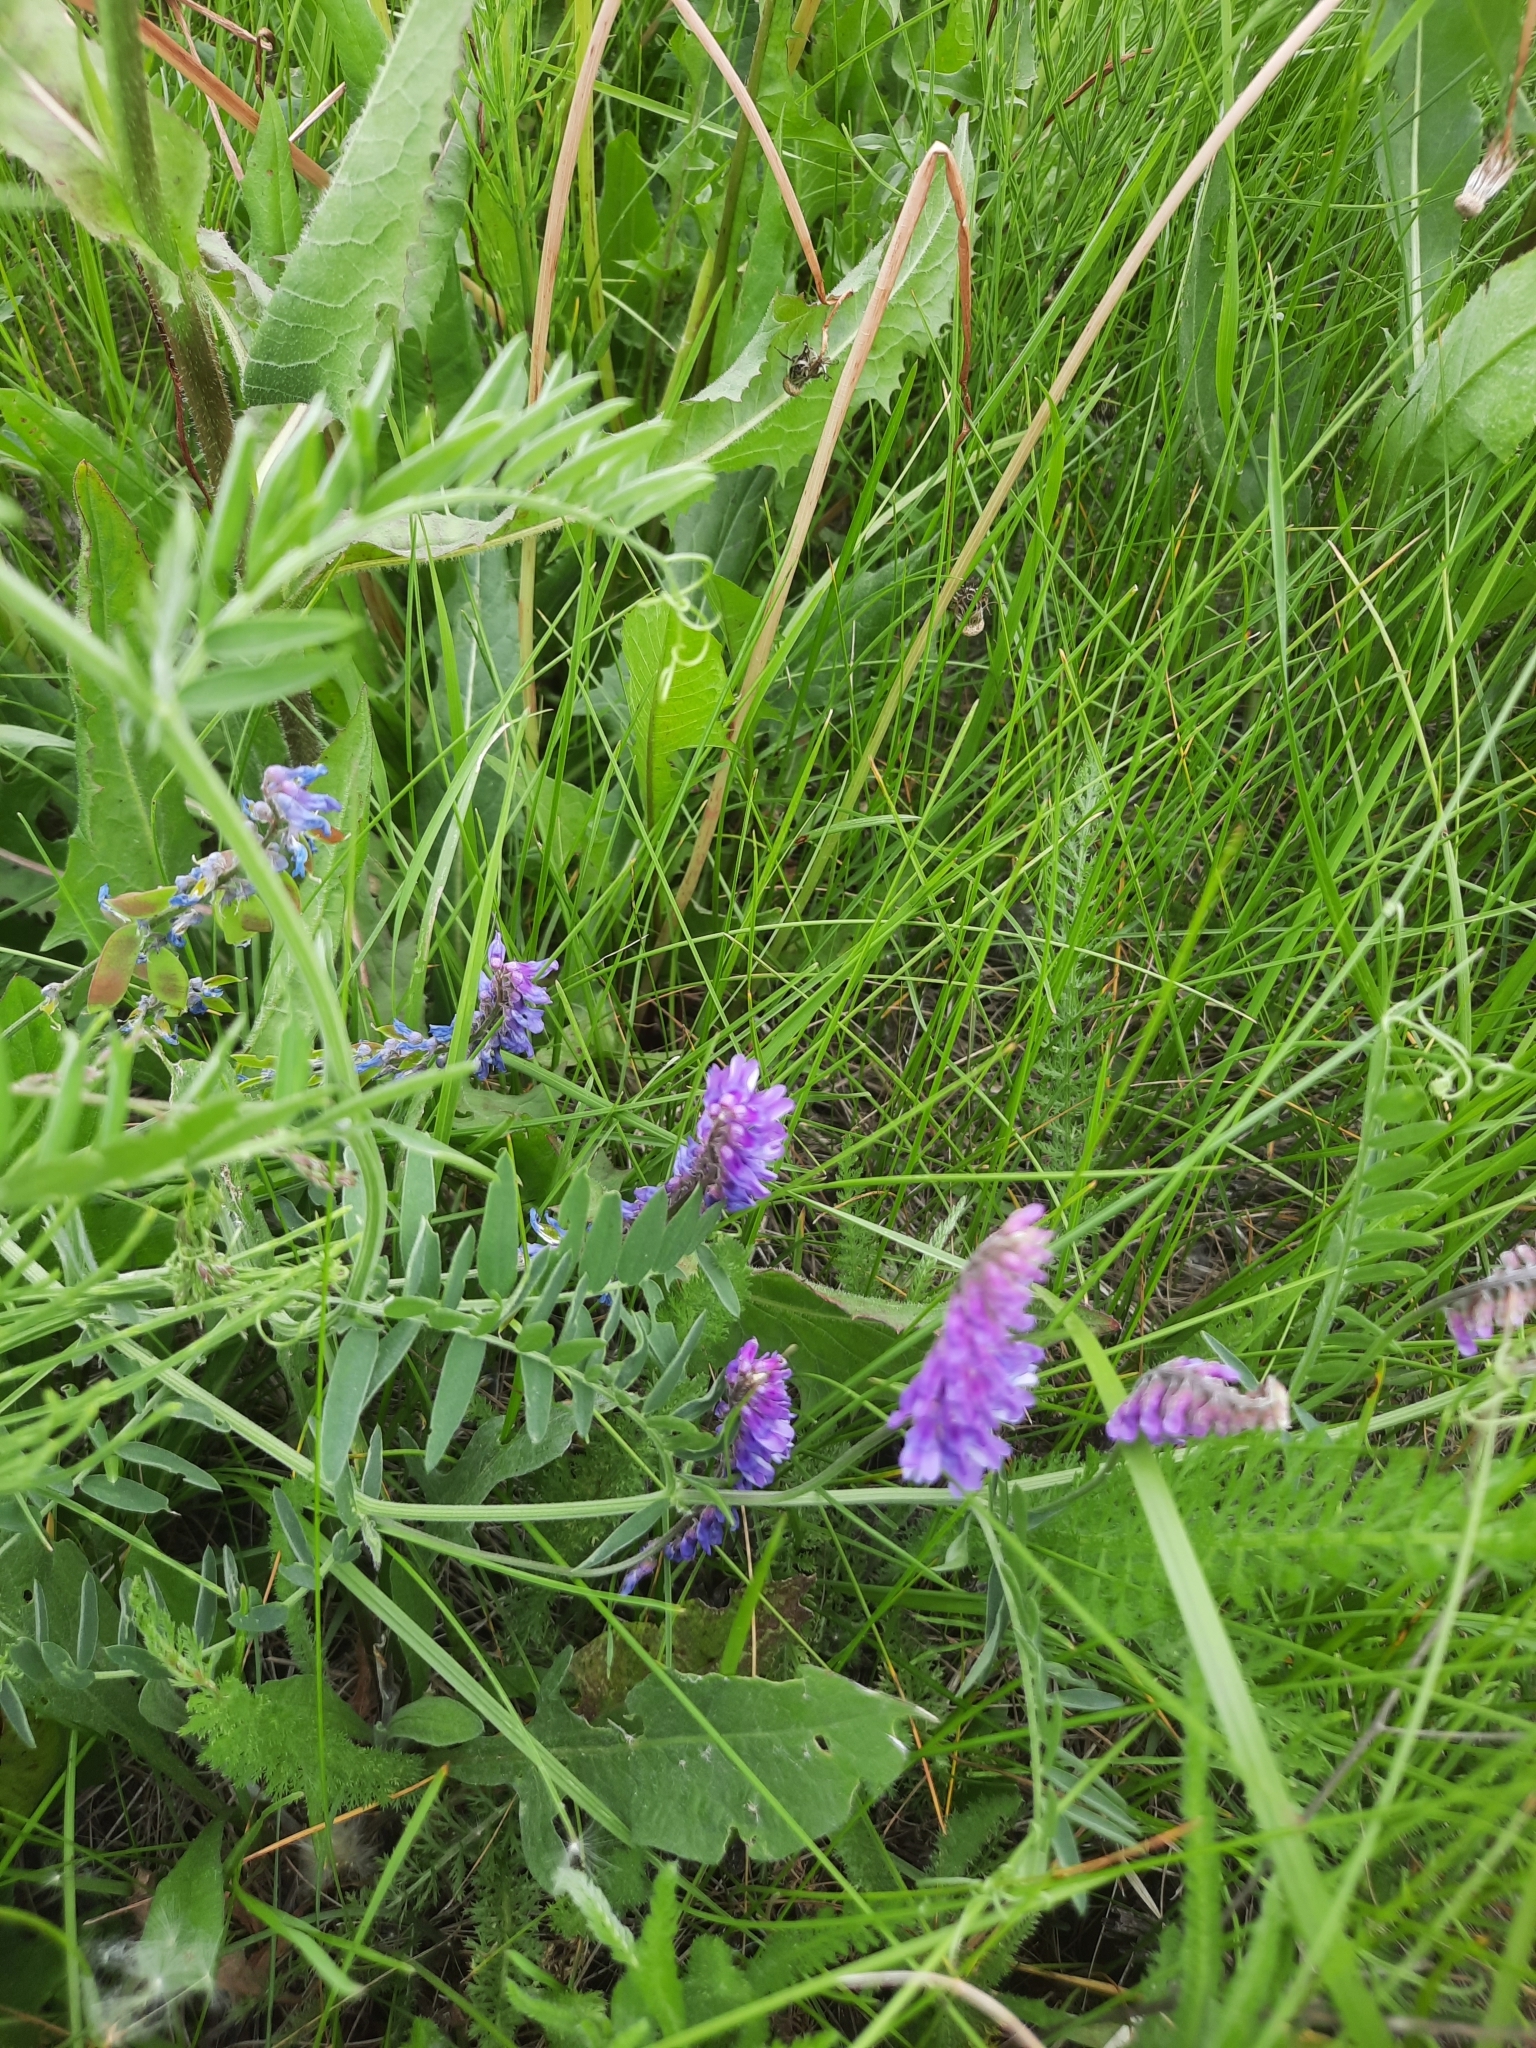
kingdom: Plantae
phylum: Tracheophyta
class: Magnoliopsida
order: Fabales
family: Fabaceae
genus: Vicia
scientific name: Vicia cracca
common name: Bird vetch
